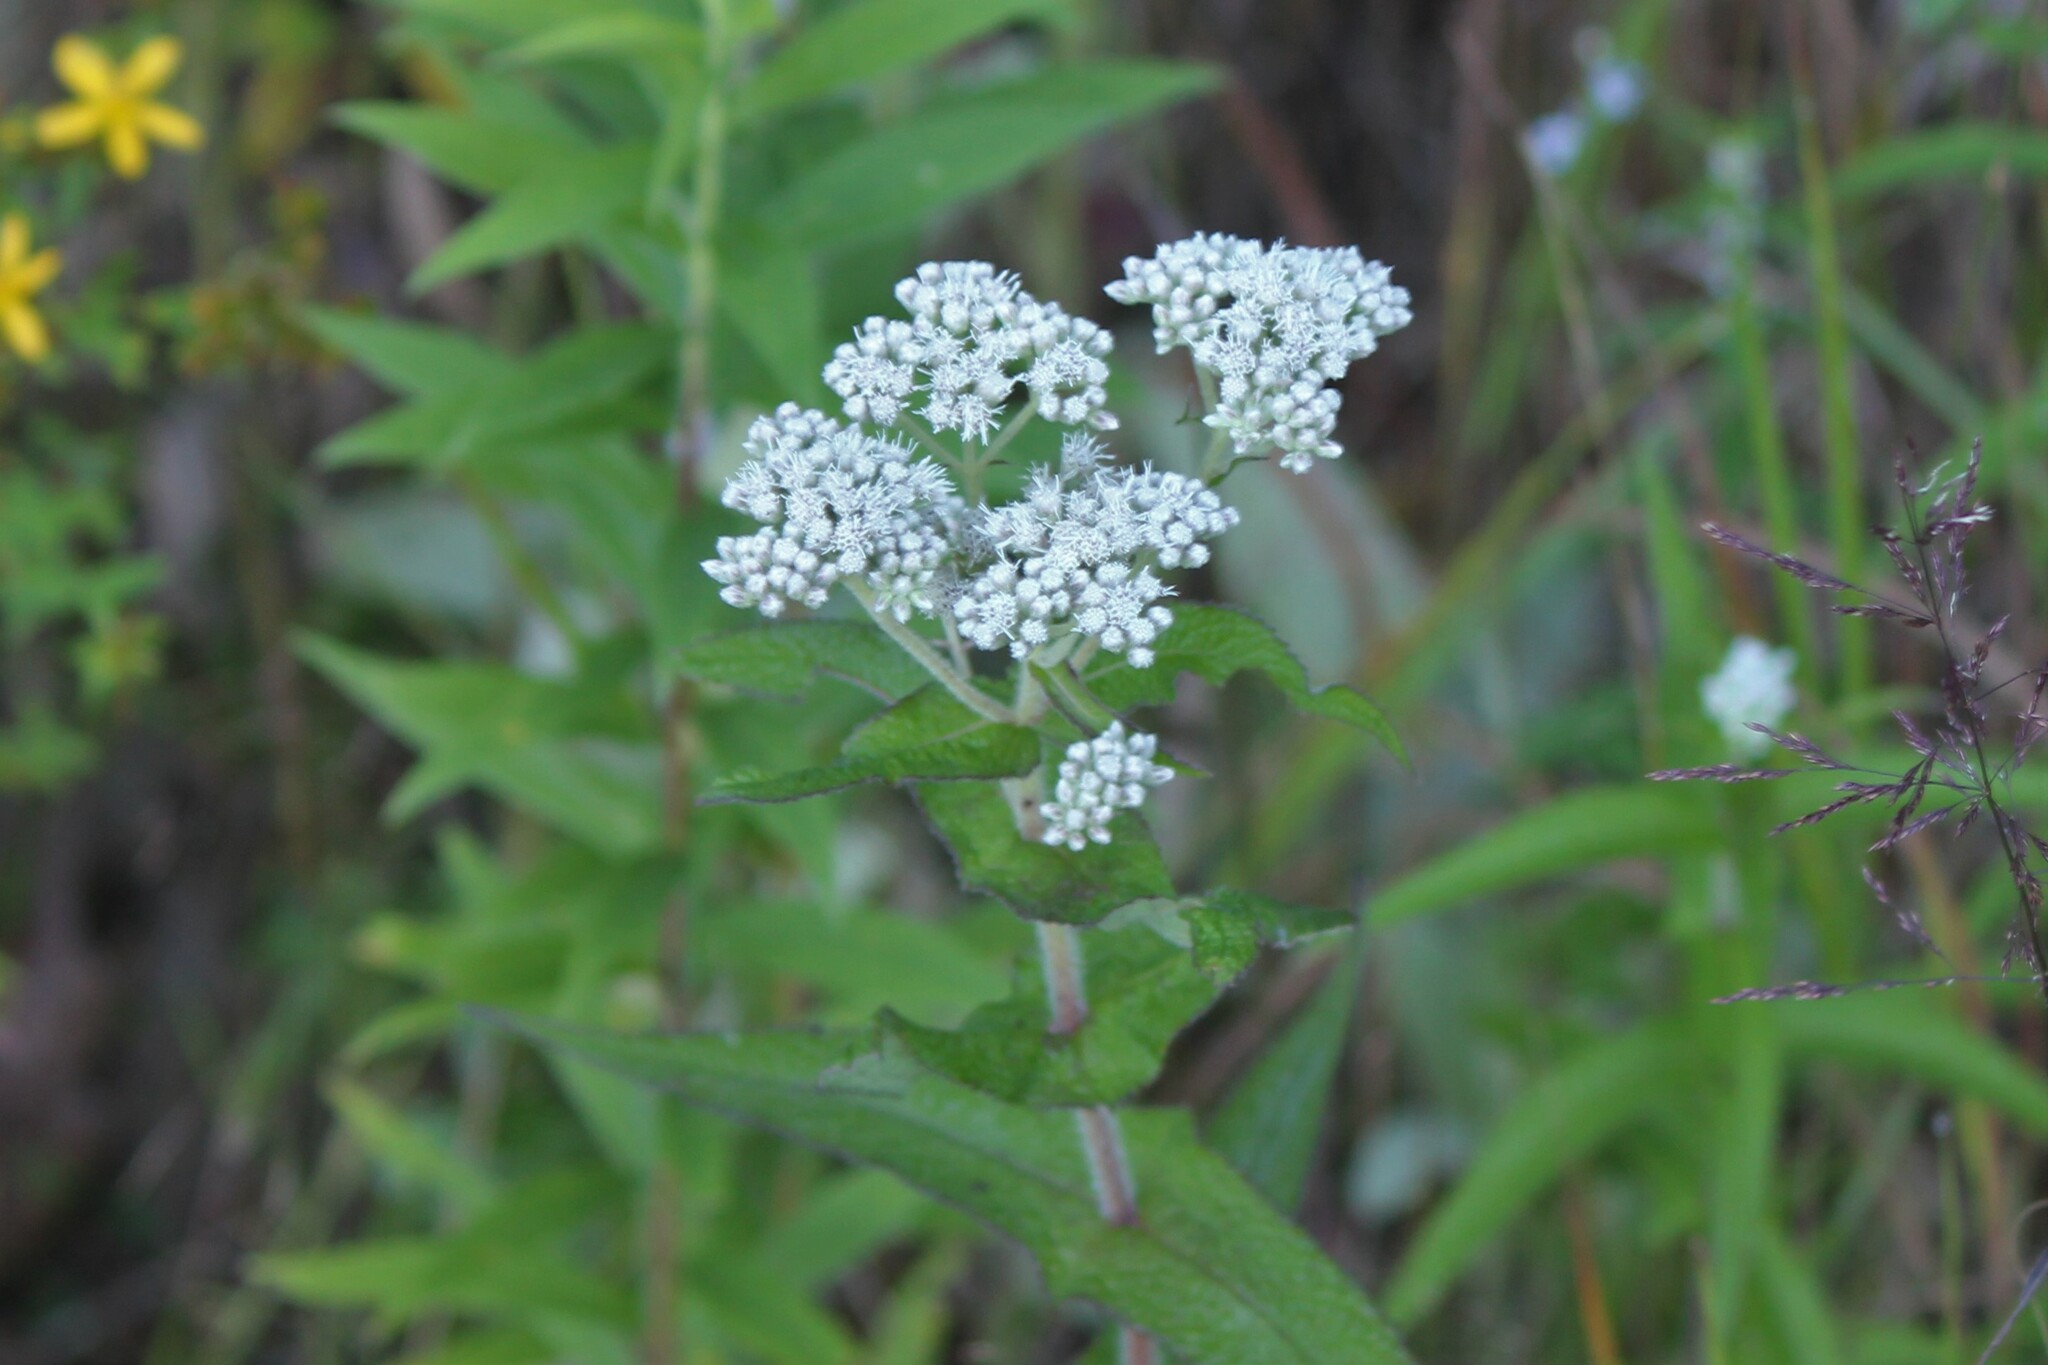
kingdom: Plantae
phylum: Tracheophyta
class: Magnoliopsida
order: Asterales
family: Asteraceae
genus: Eupatorium
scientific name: Eupatorium perfoliatum
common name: Boneset
